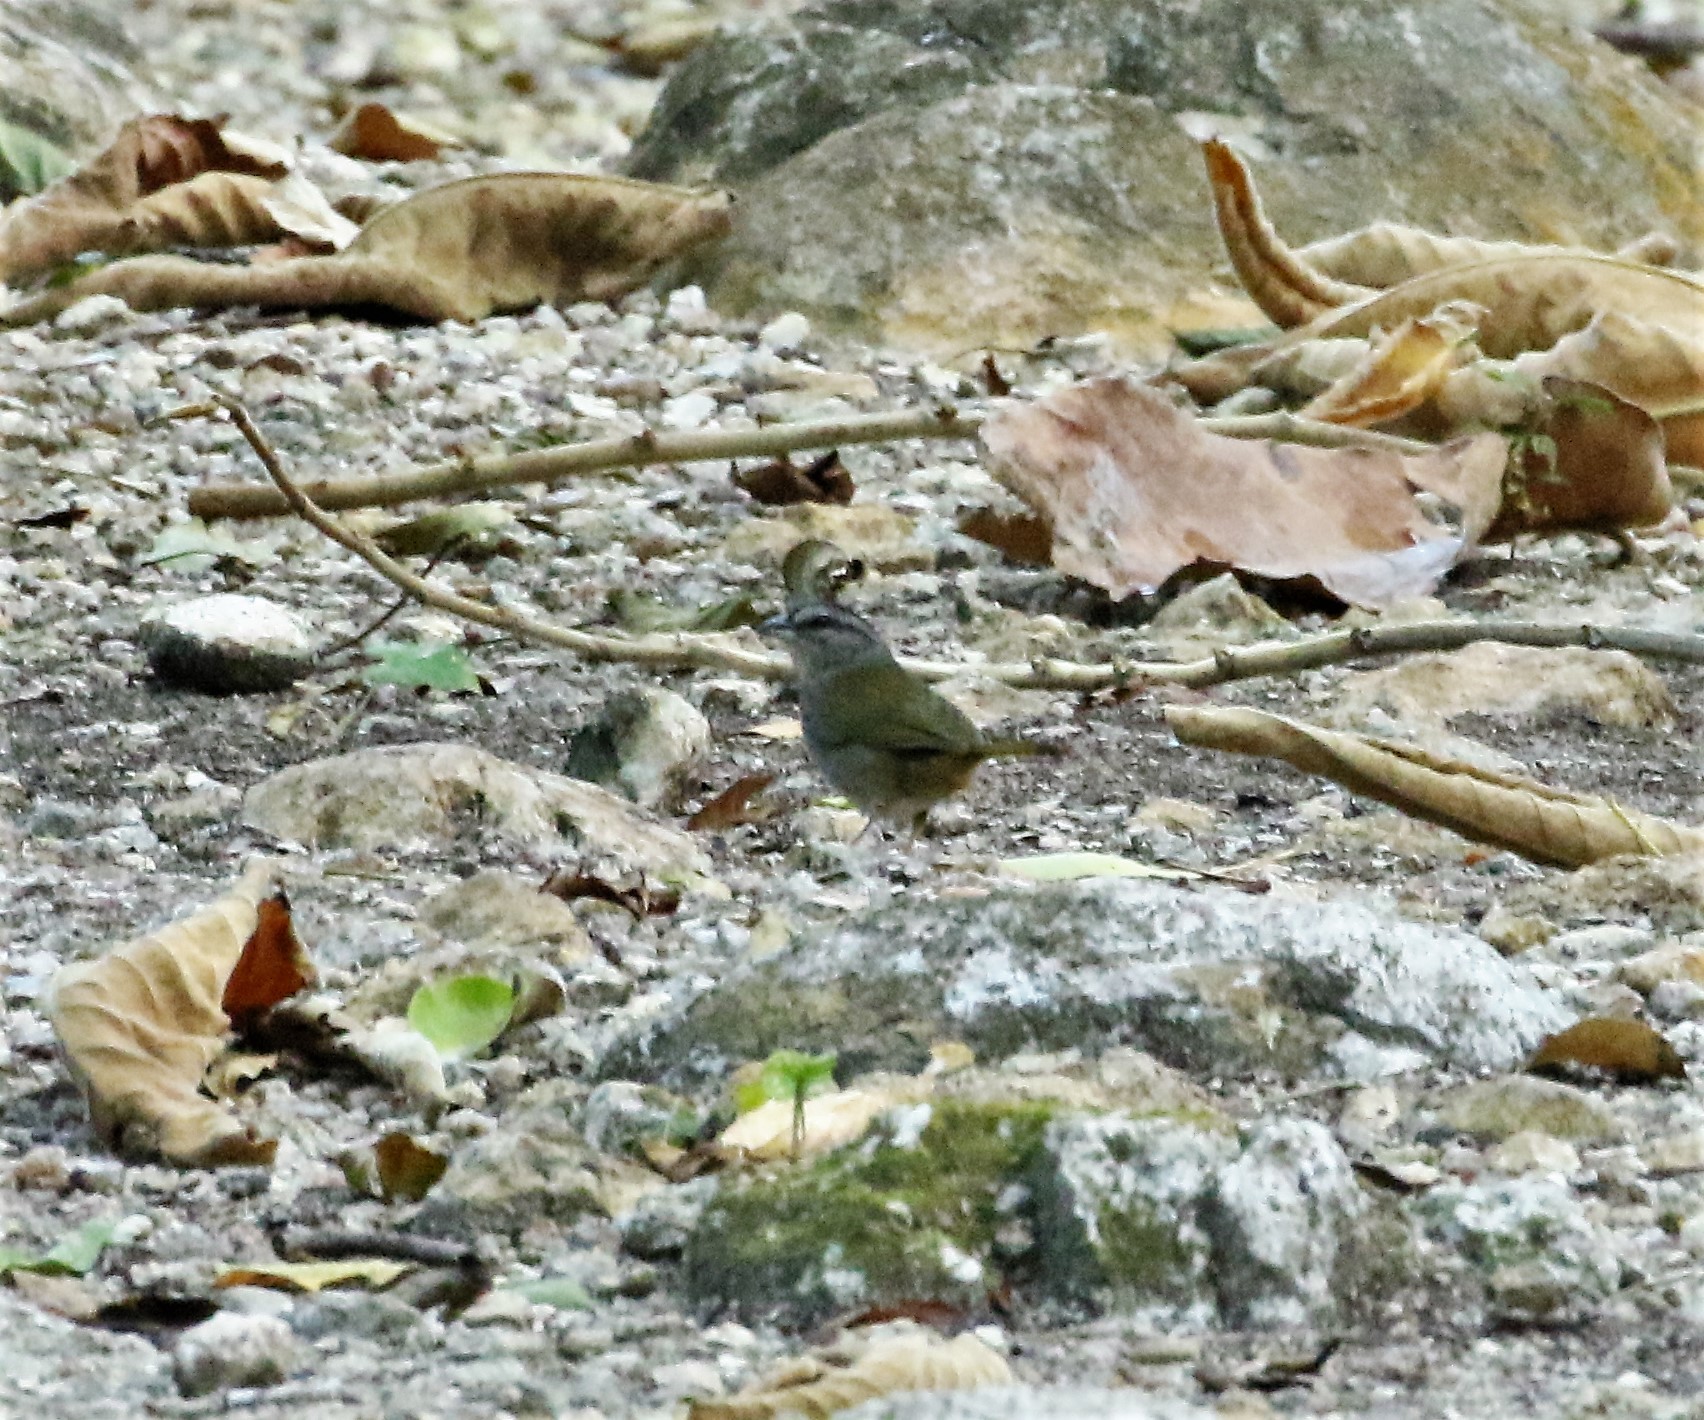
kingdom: Animalia
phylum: Chordata
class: Aves
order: Passeriformes
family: Passerellidae
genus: Arremonops
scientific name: Arremonops chloronotus
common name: Green-backed sparrow
